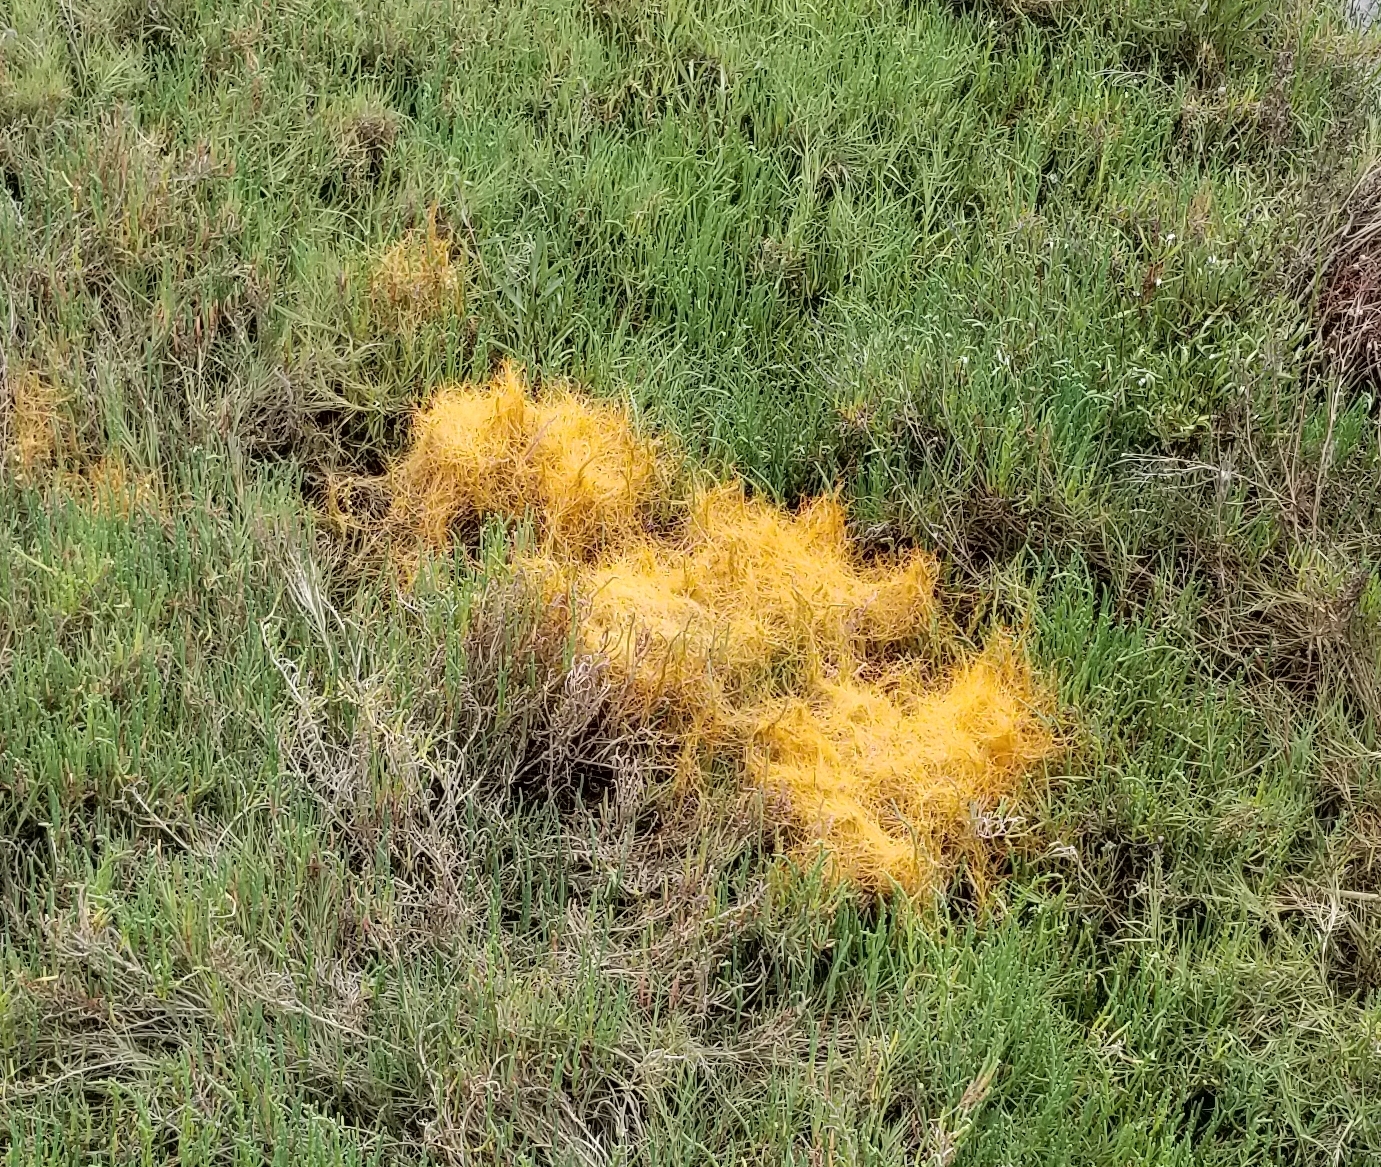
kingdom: Plantae
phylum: Tracheophyta
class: Magnoliopsida
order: Solanales
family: Convolvulaceae
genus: Cuscuta
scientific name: Cuscuta pacifica
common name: Large saltmarsh dodder
